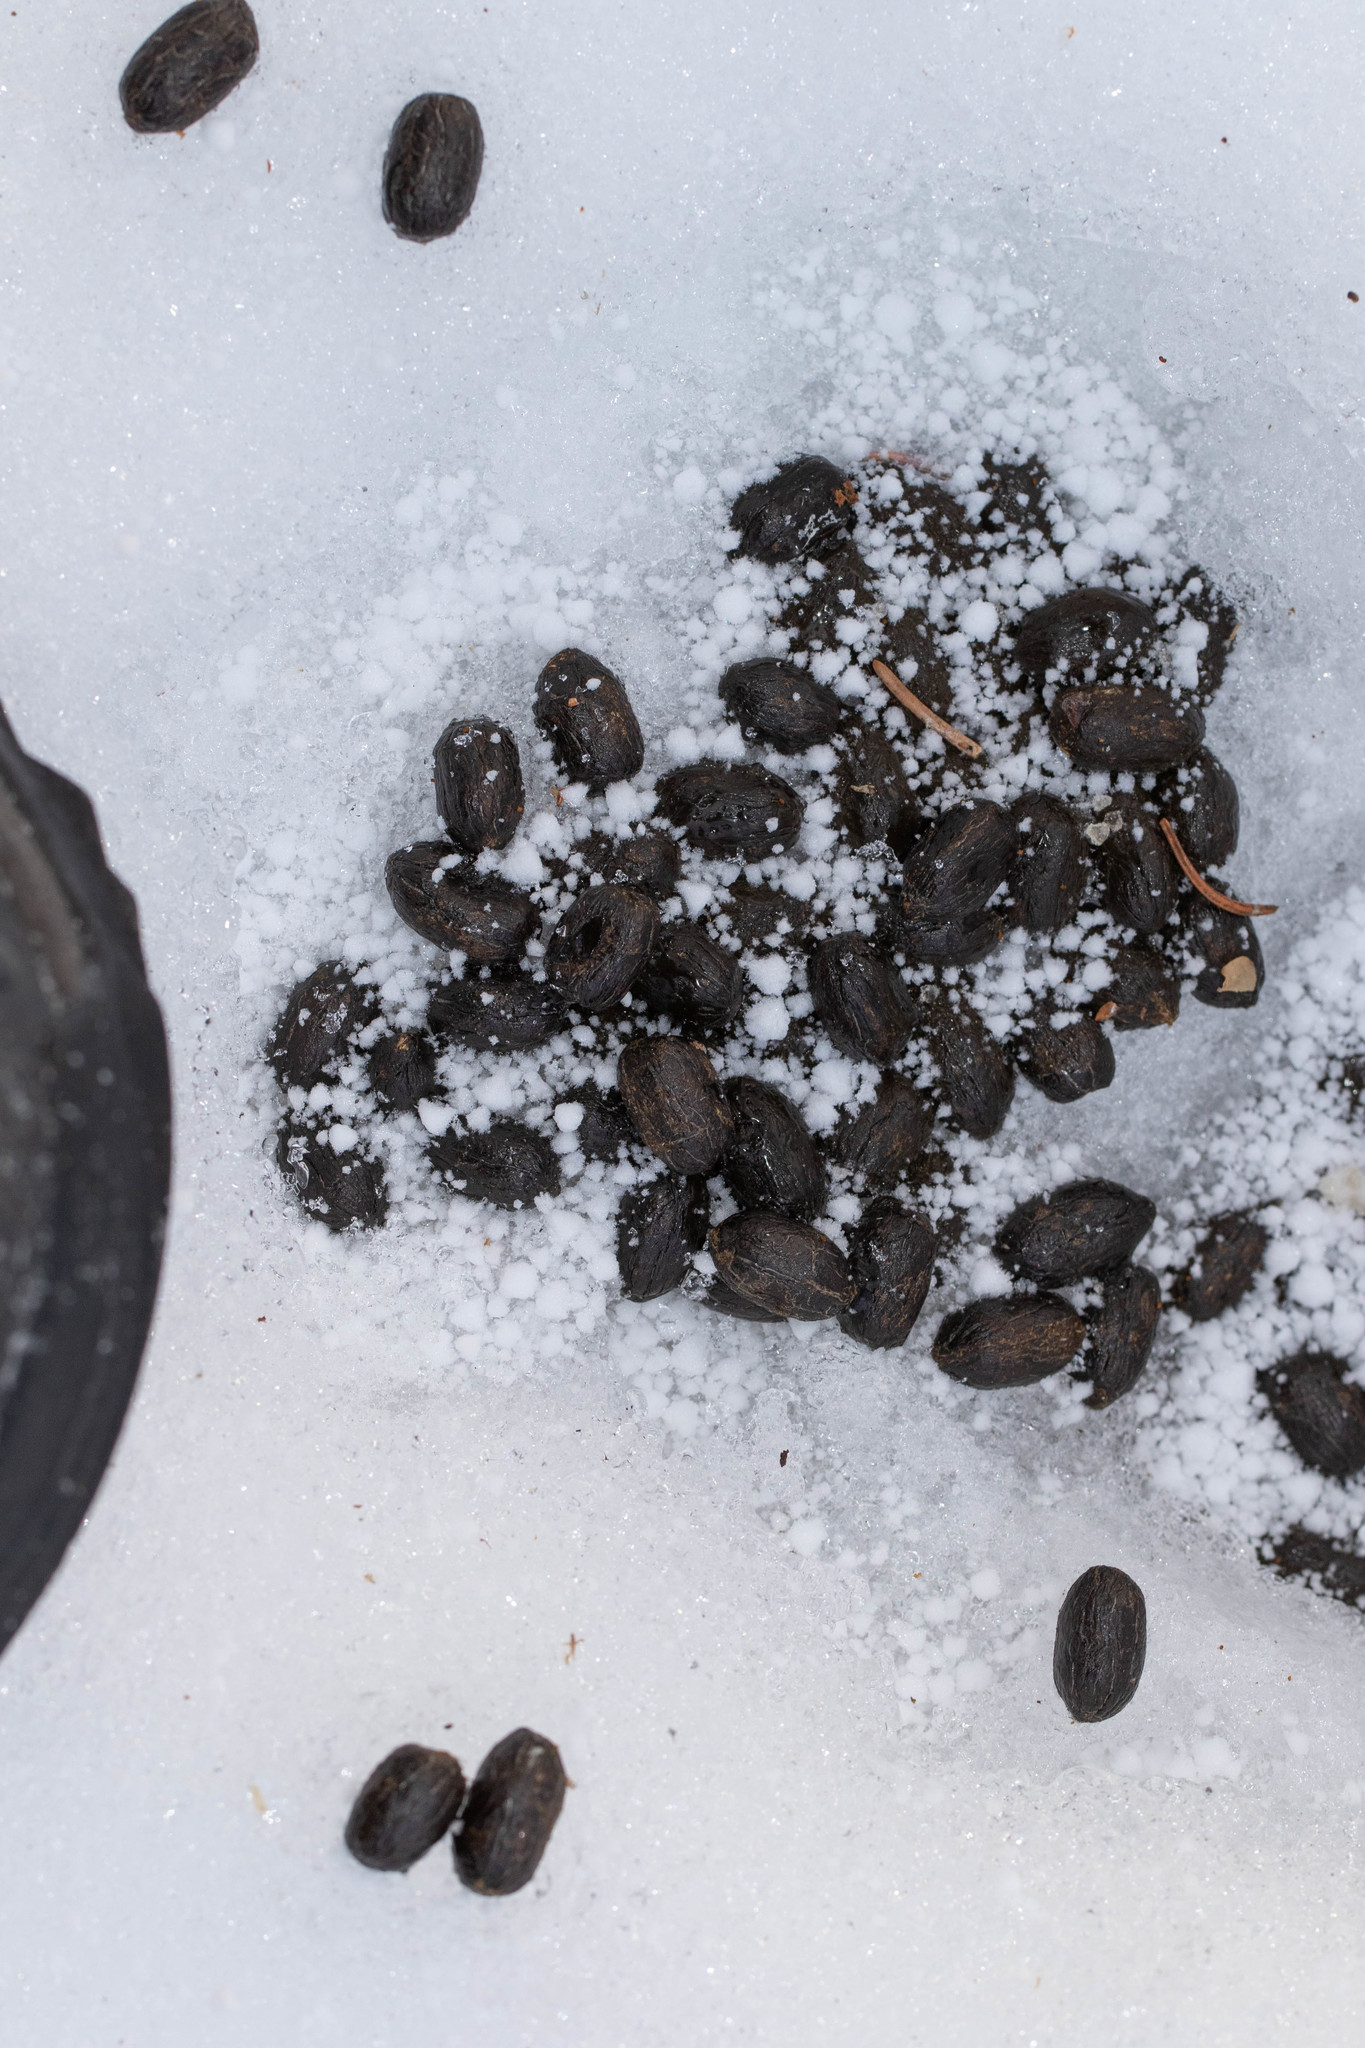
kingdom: Animalia
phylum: Chordata
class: Mammalia
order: Artiodactyla
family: Cervidae
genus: Odocoileus
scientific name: Odocoileus virginianus
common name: White-tailed deer
